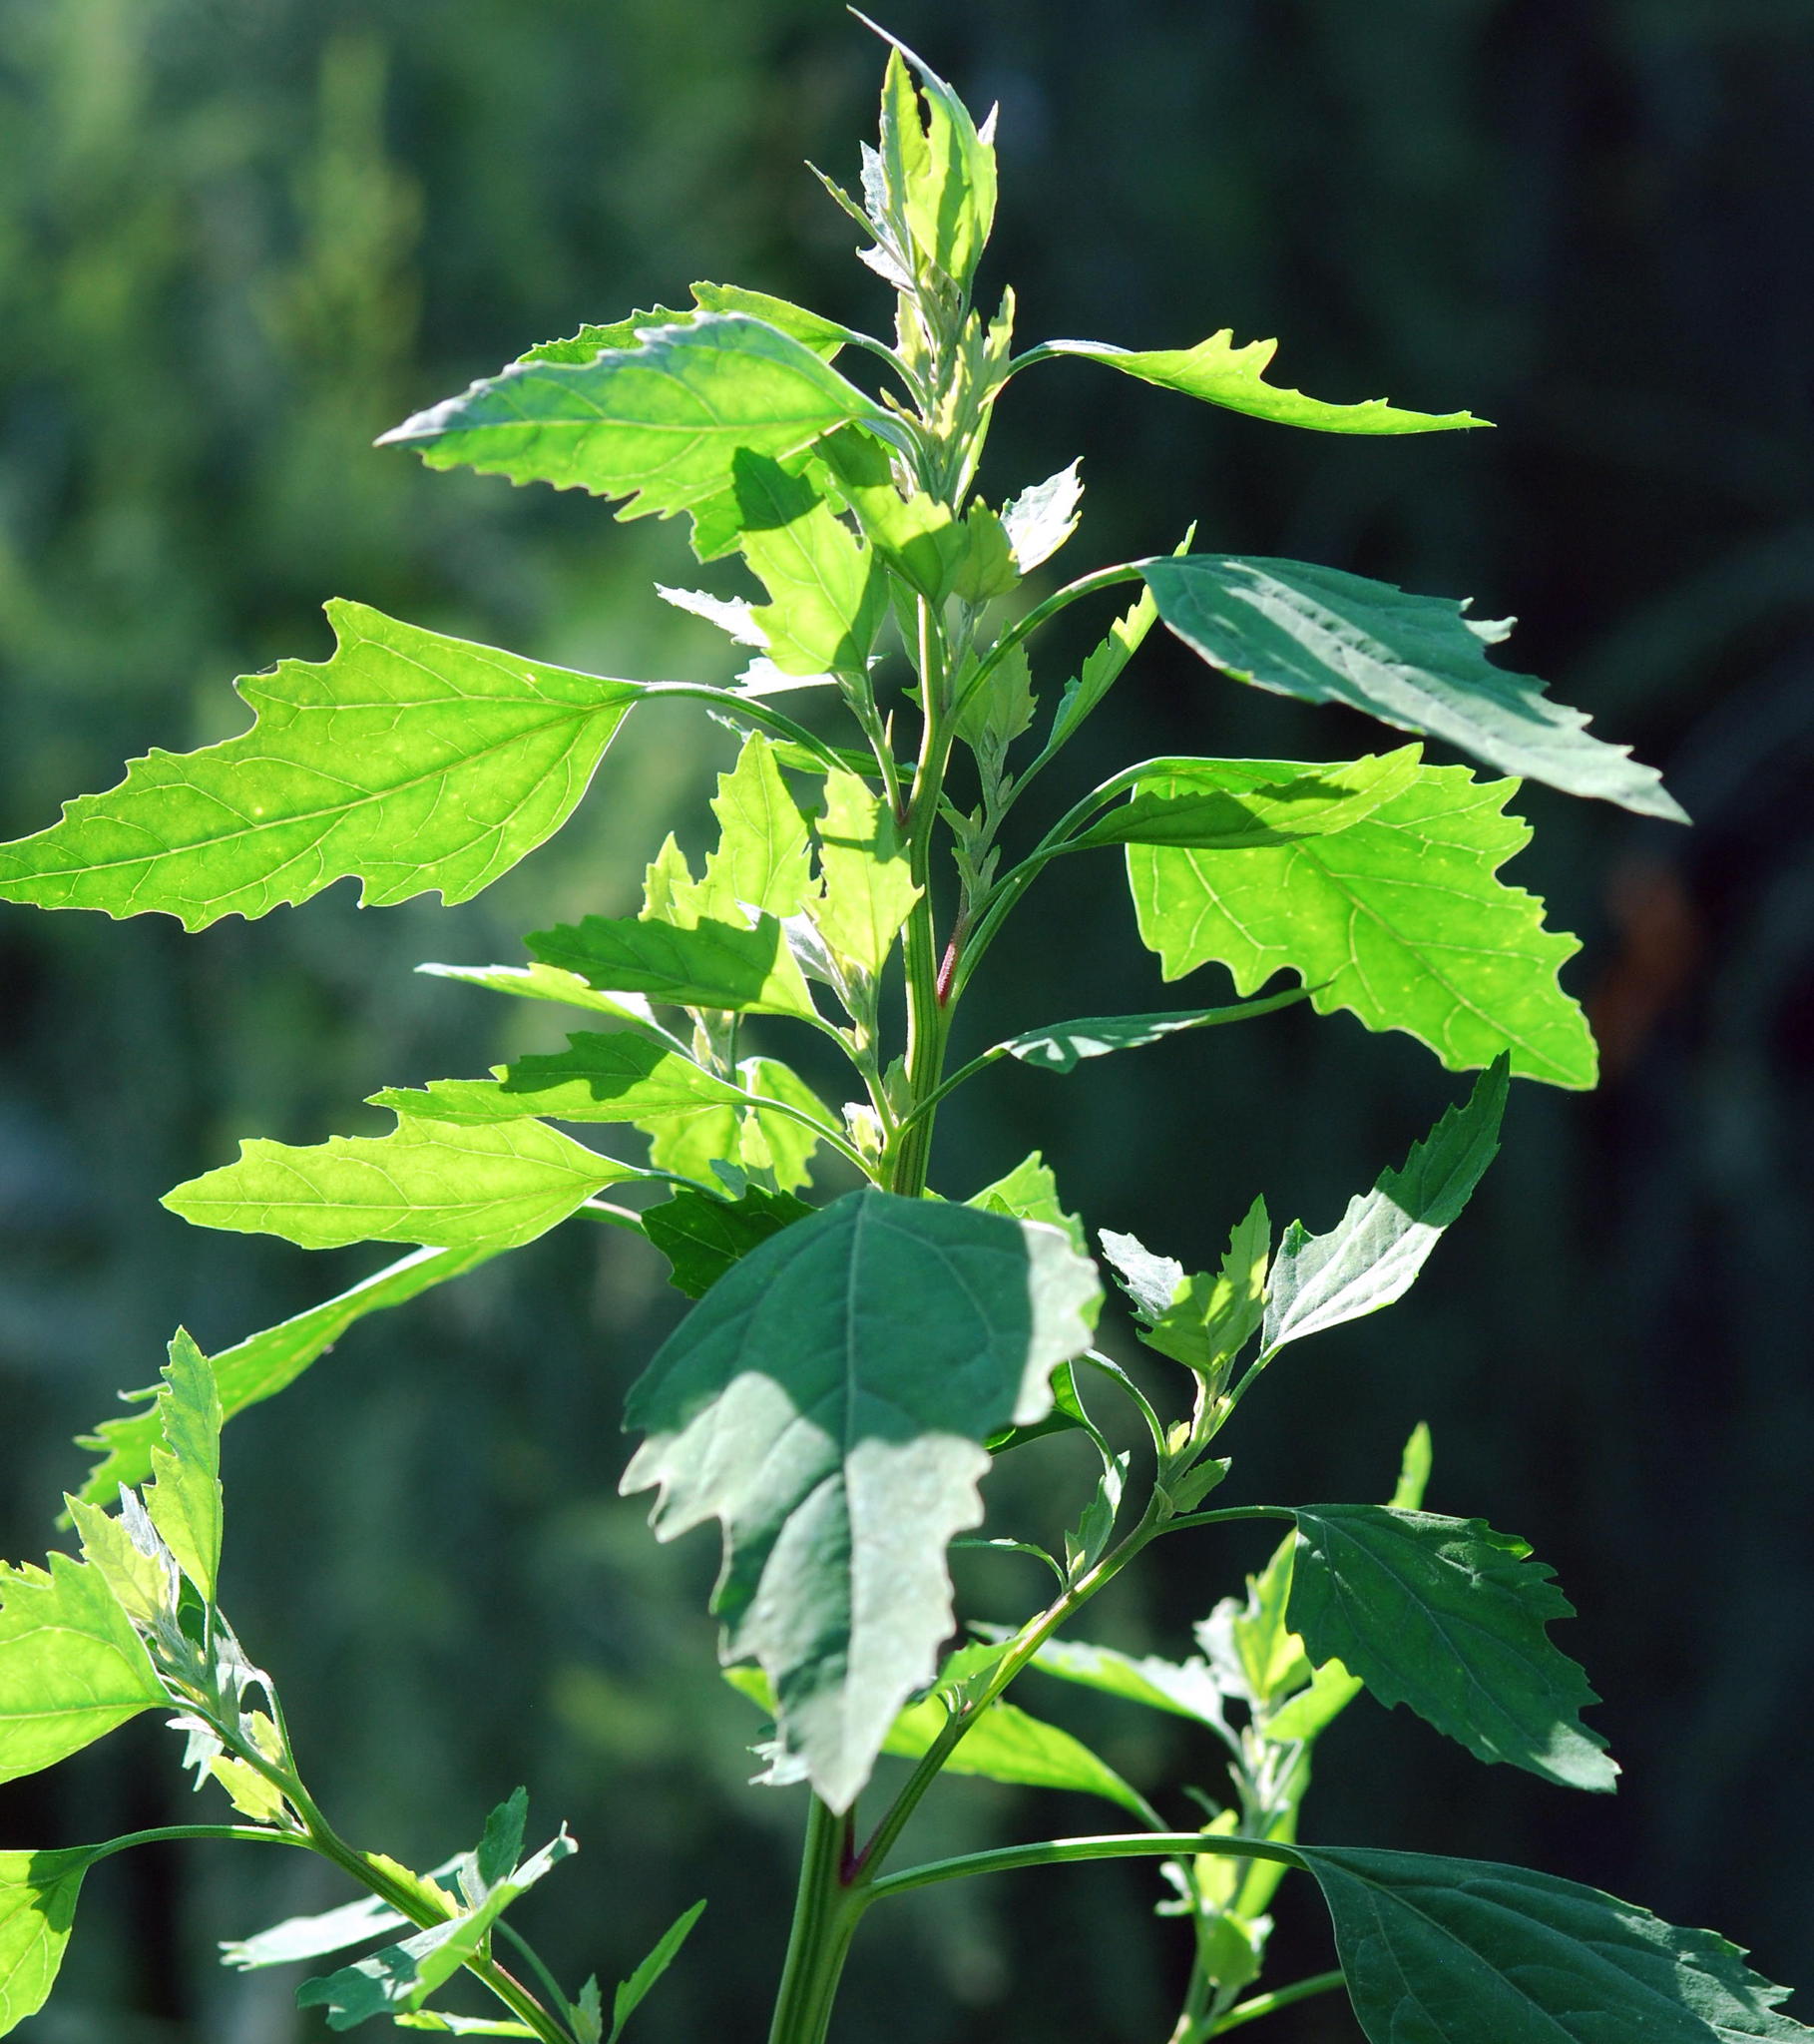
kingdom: Plantae
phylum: Tracheophyta
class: Magnoliopsida
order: Caryophyllales
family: Amaranthaceae
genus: Chenopodium
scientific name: Chenopodium album
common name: Fat-hen
